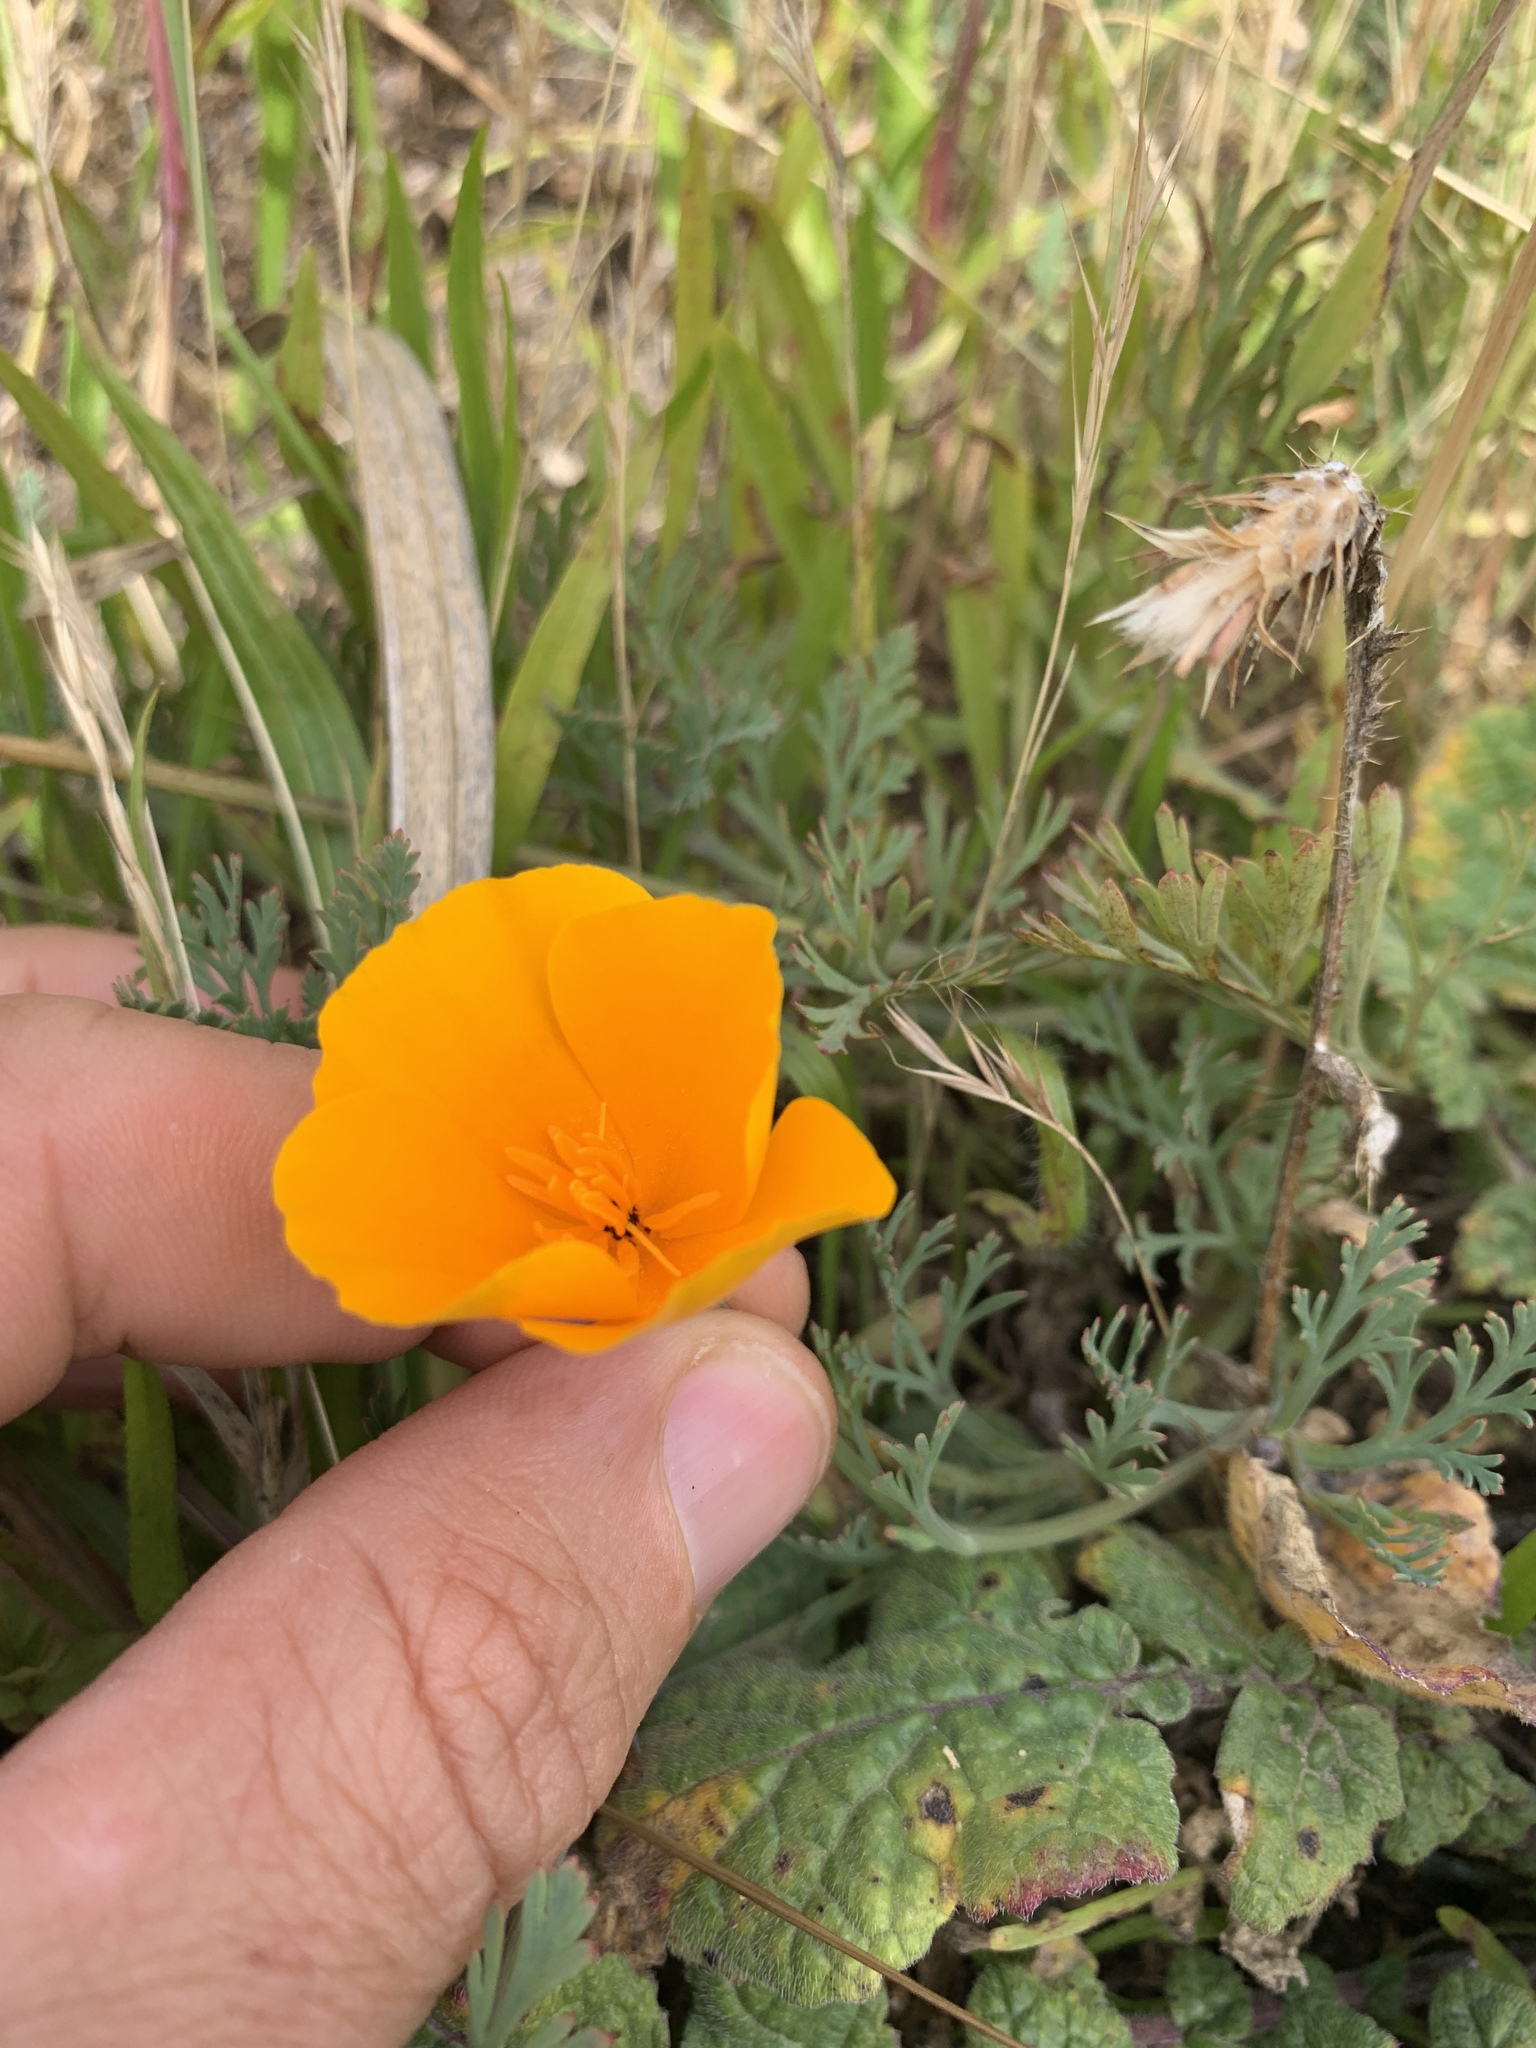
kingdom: Plantae
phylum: Tracheophyta
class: Magnoliopsida
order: Ranunculales
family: Papaveraceae
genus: Eschscholzia
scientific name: Eschscholzia californica
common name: California poppy
